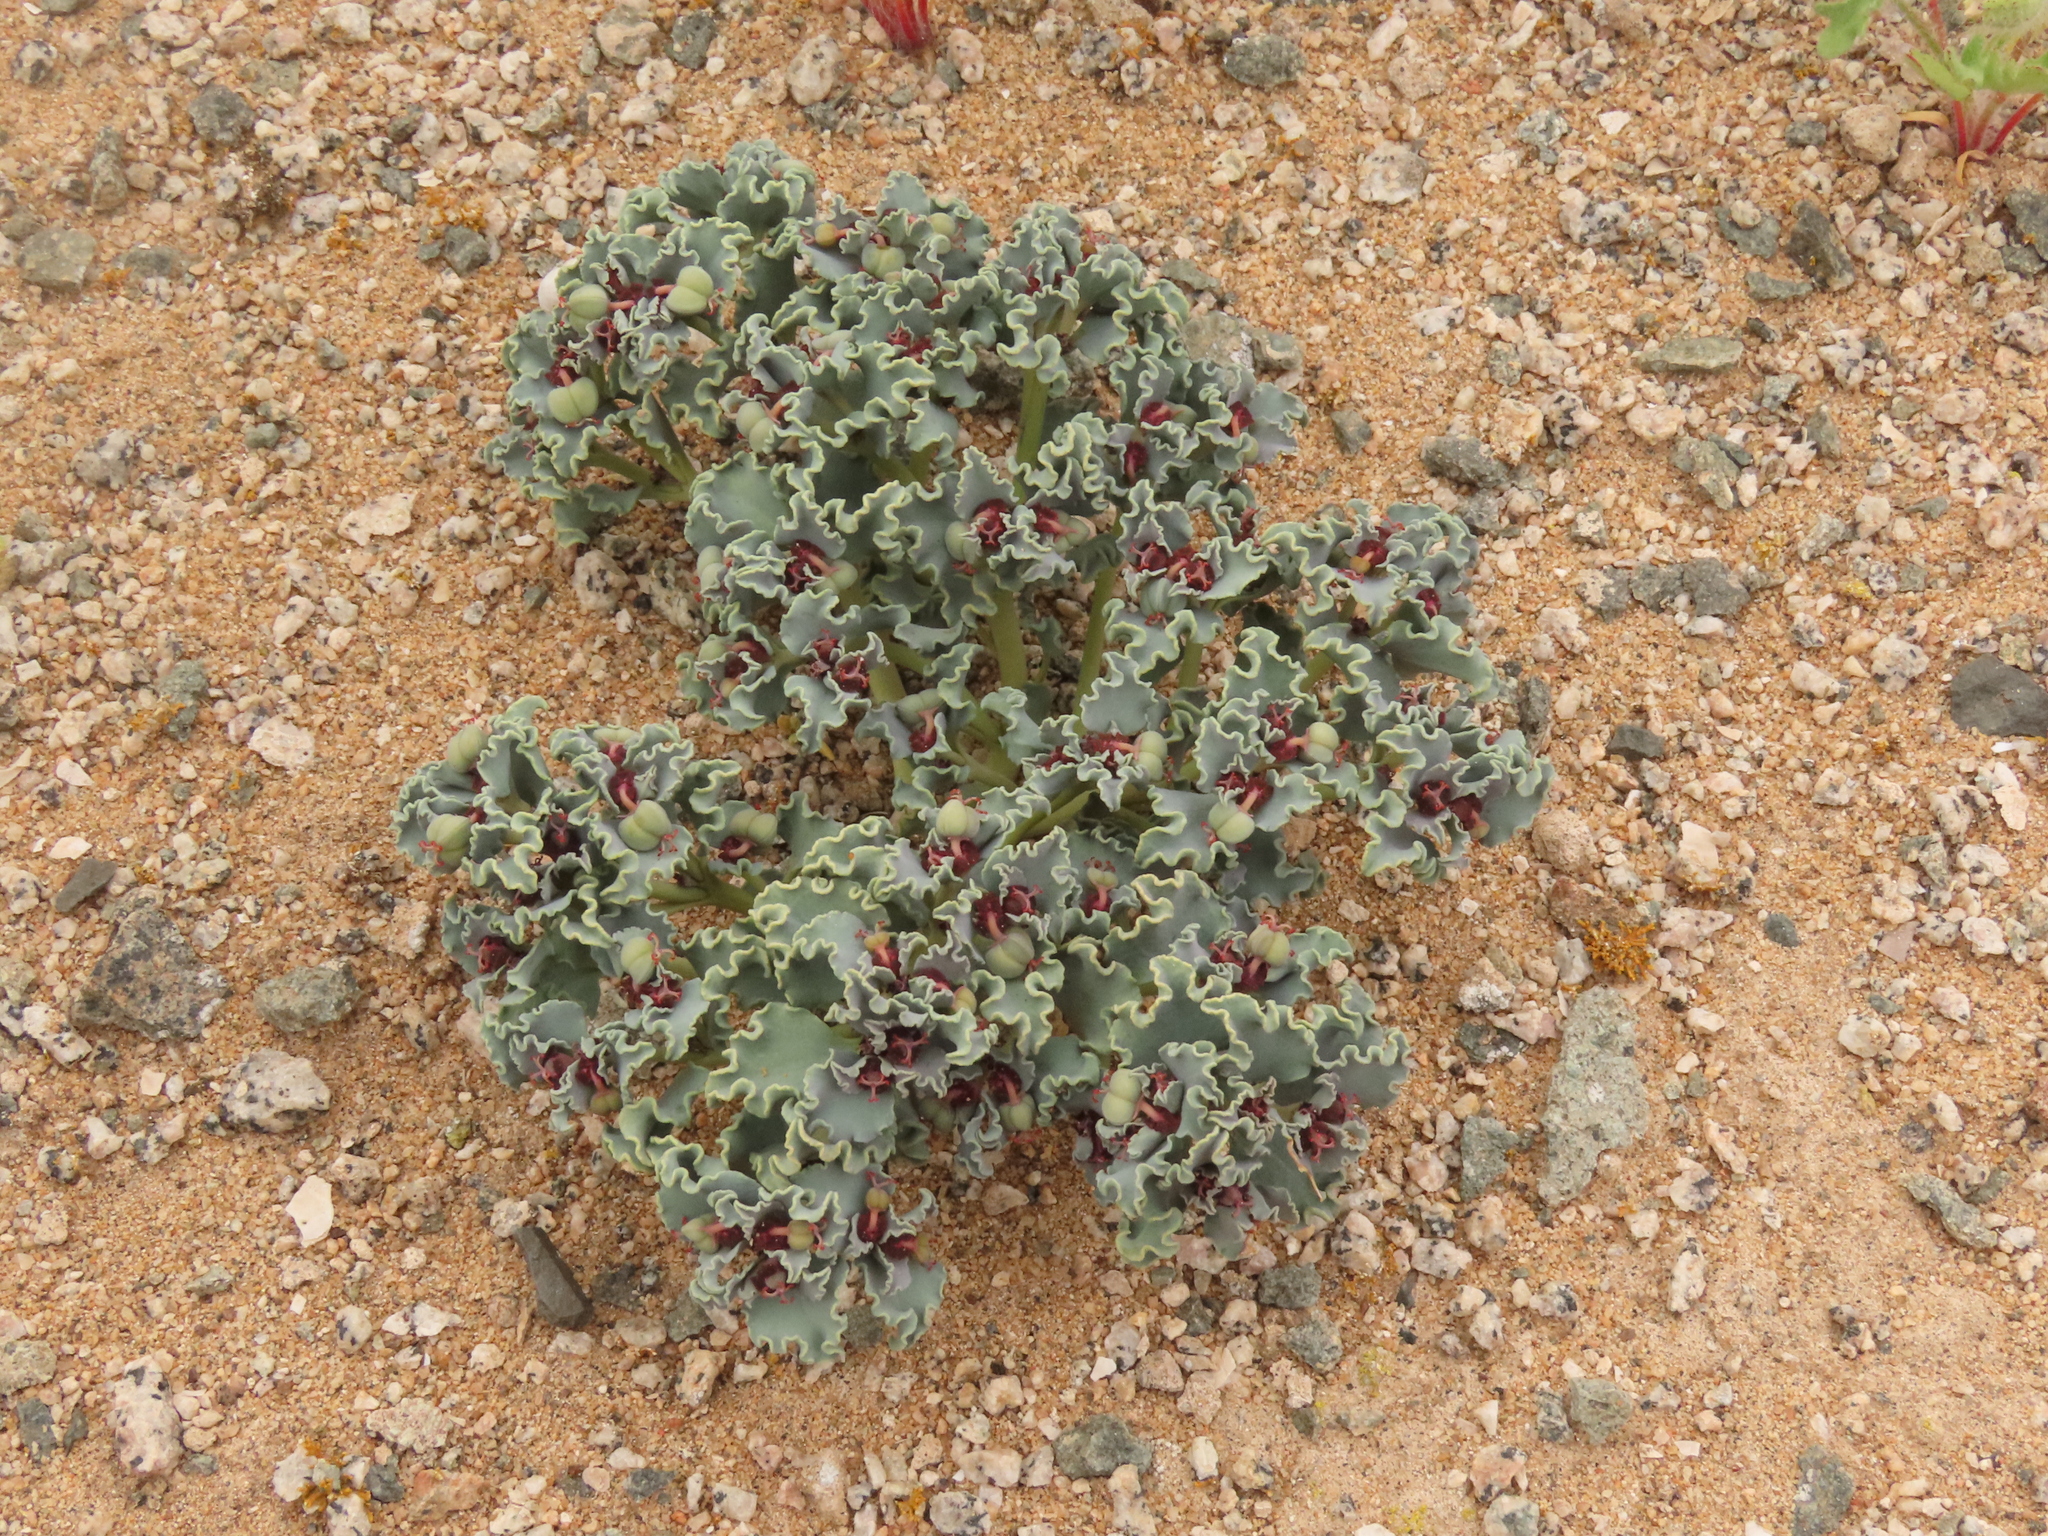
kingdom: Plantae
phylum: Tracheophyta
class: Magnoliopsida
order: Malpighiales
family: Euphorbiaceae
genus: Euphorbia
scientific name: Euphorbia copiapina
